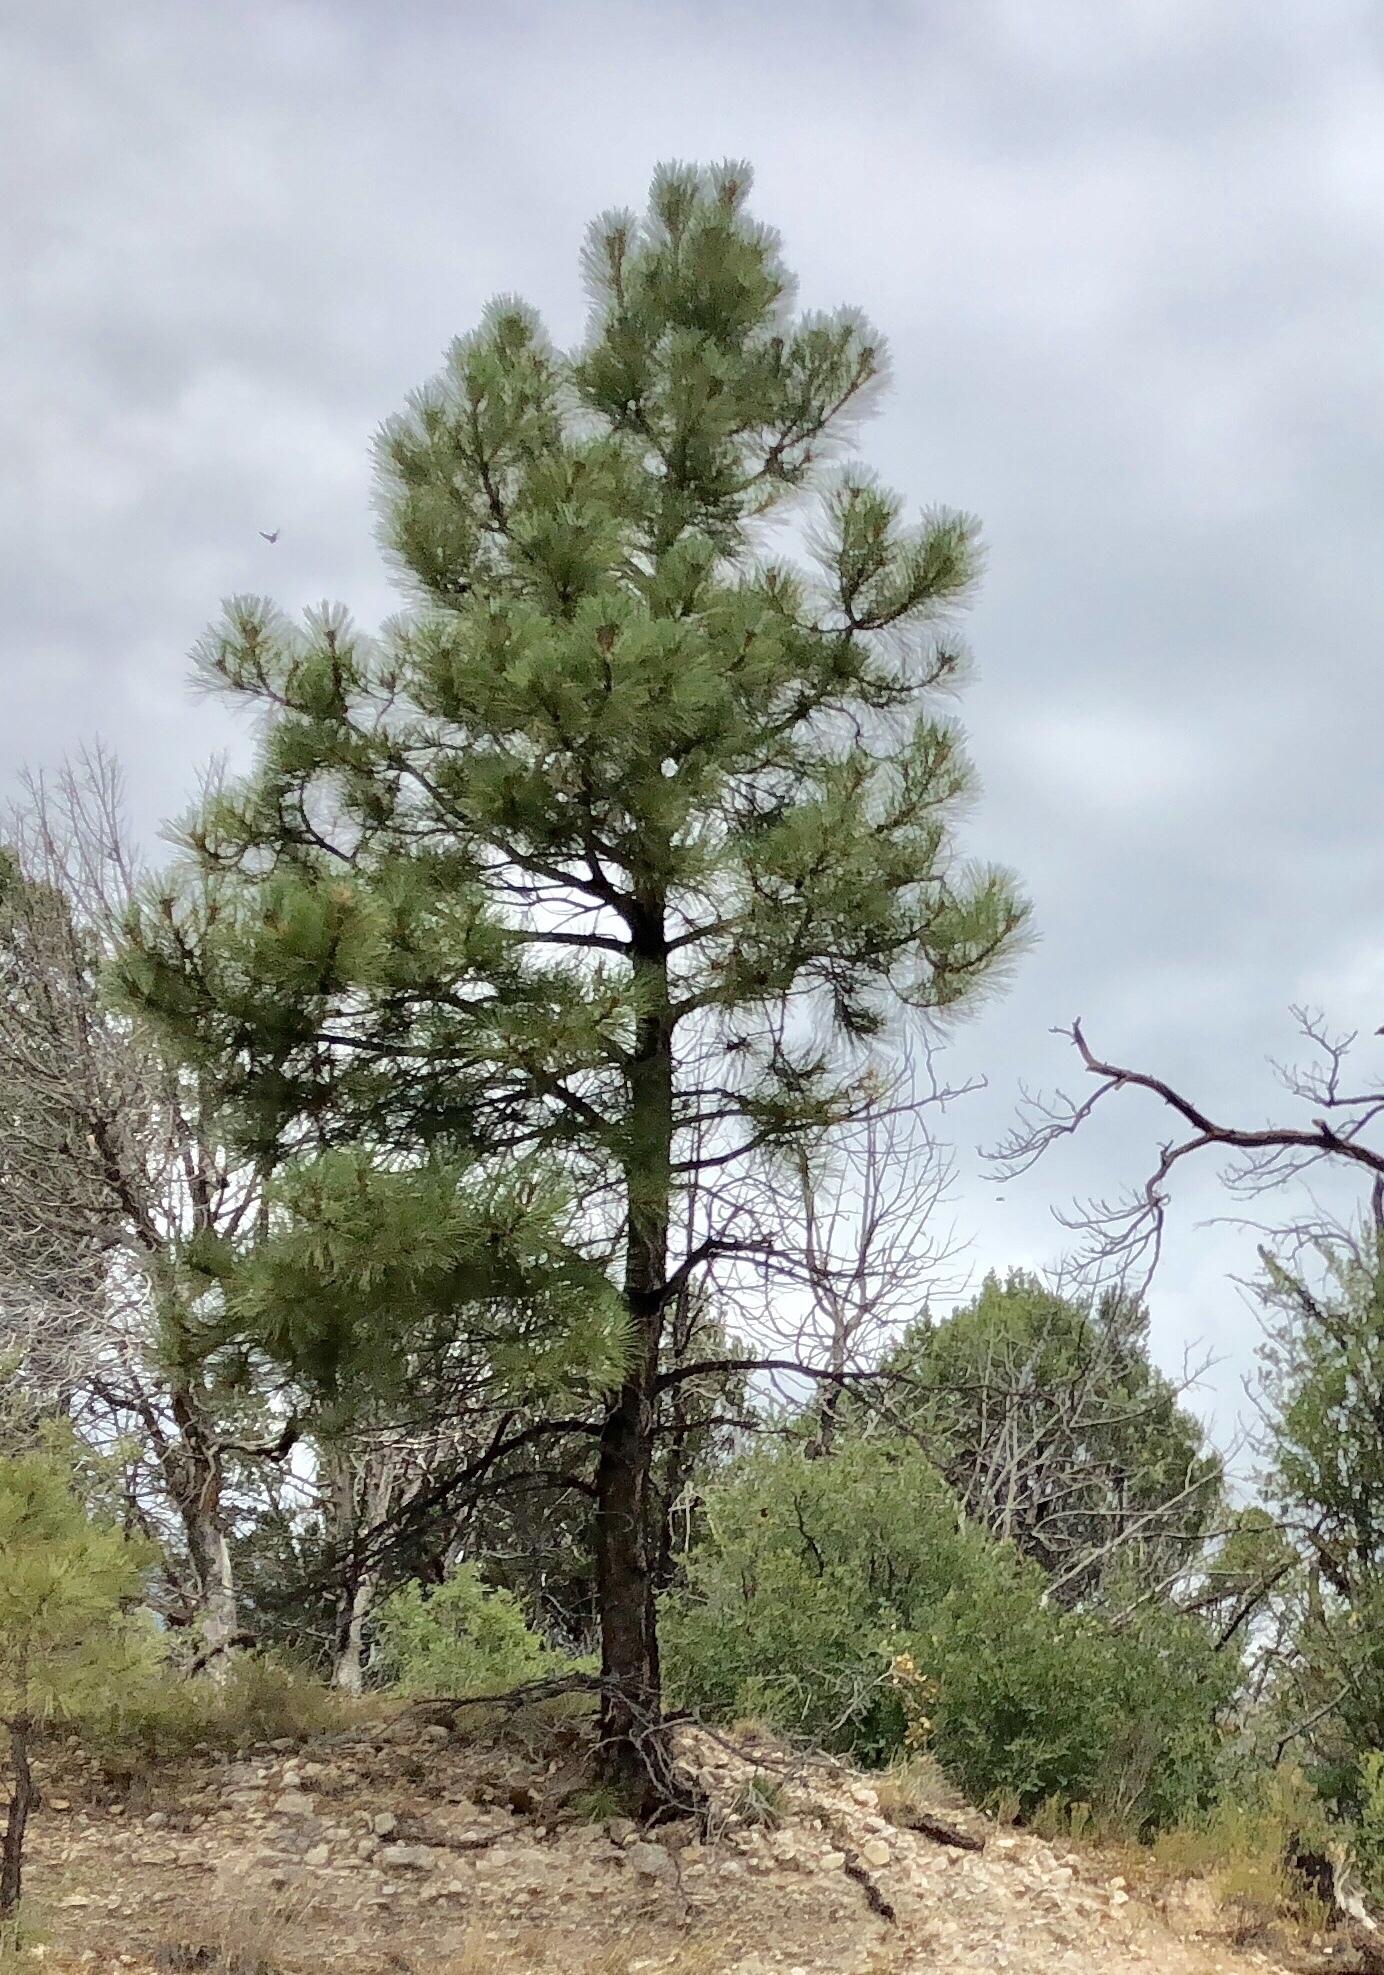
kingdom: Plantae
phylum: Tracheophyta
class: Pinopsida
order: Pinales
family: Pinaceae
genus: Pinus
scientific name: Pinus ponderosa
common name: Western yellow-pine
